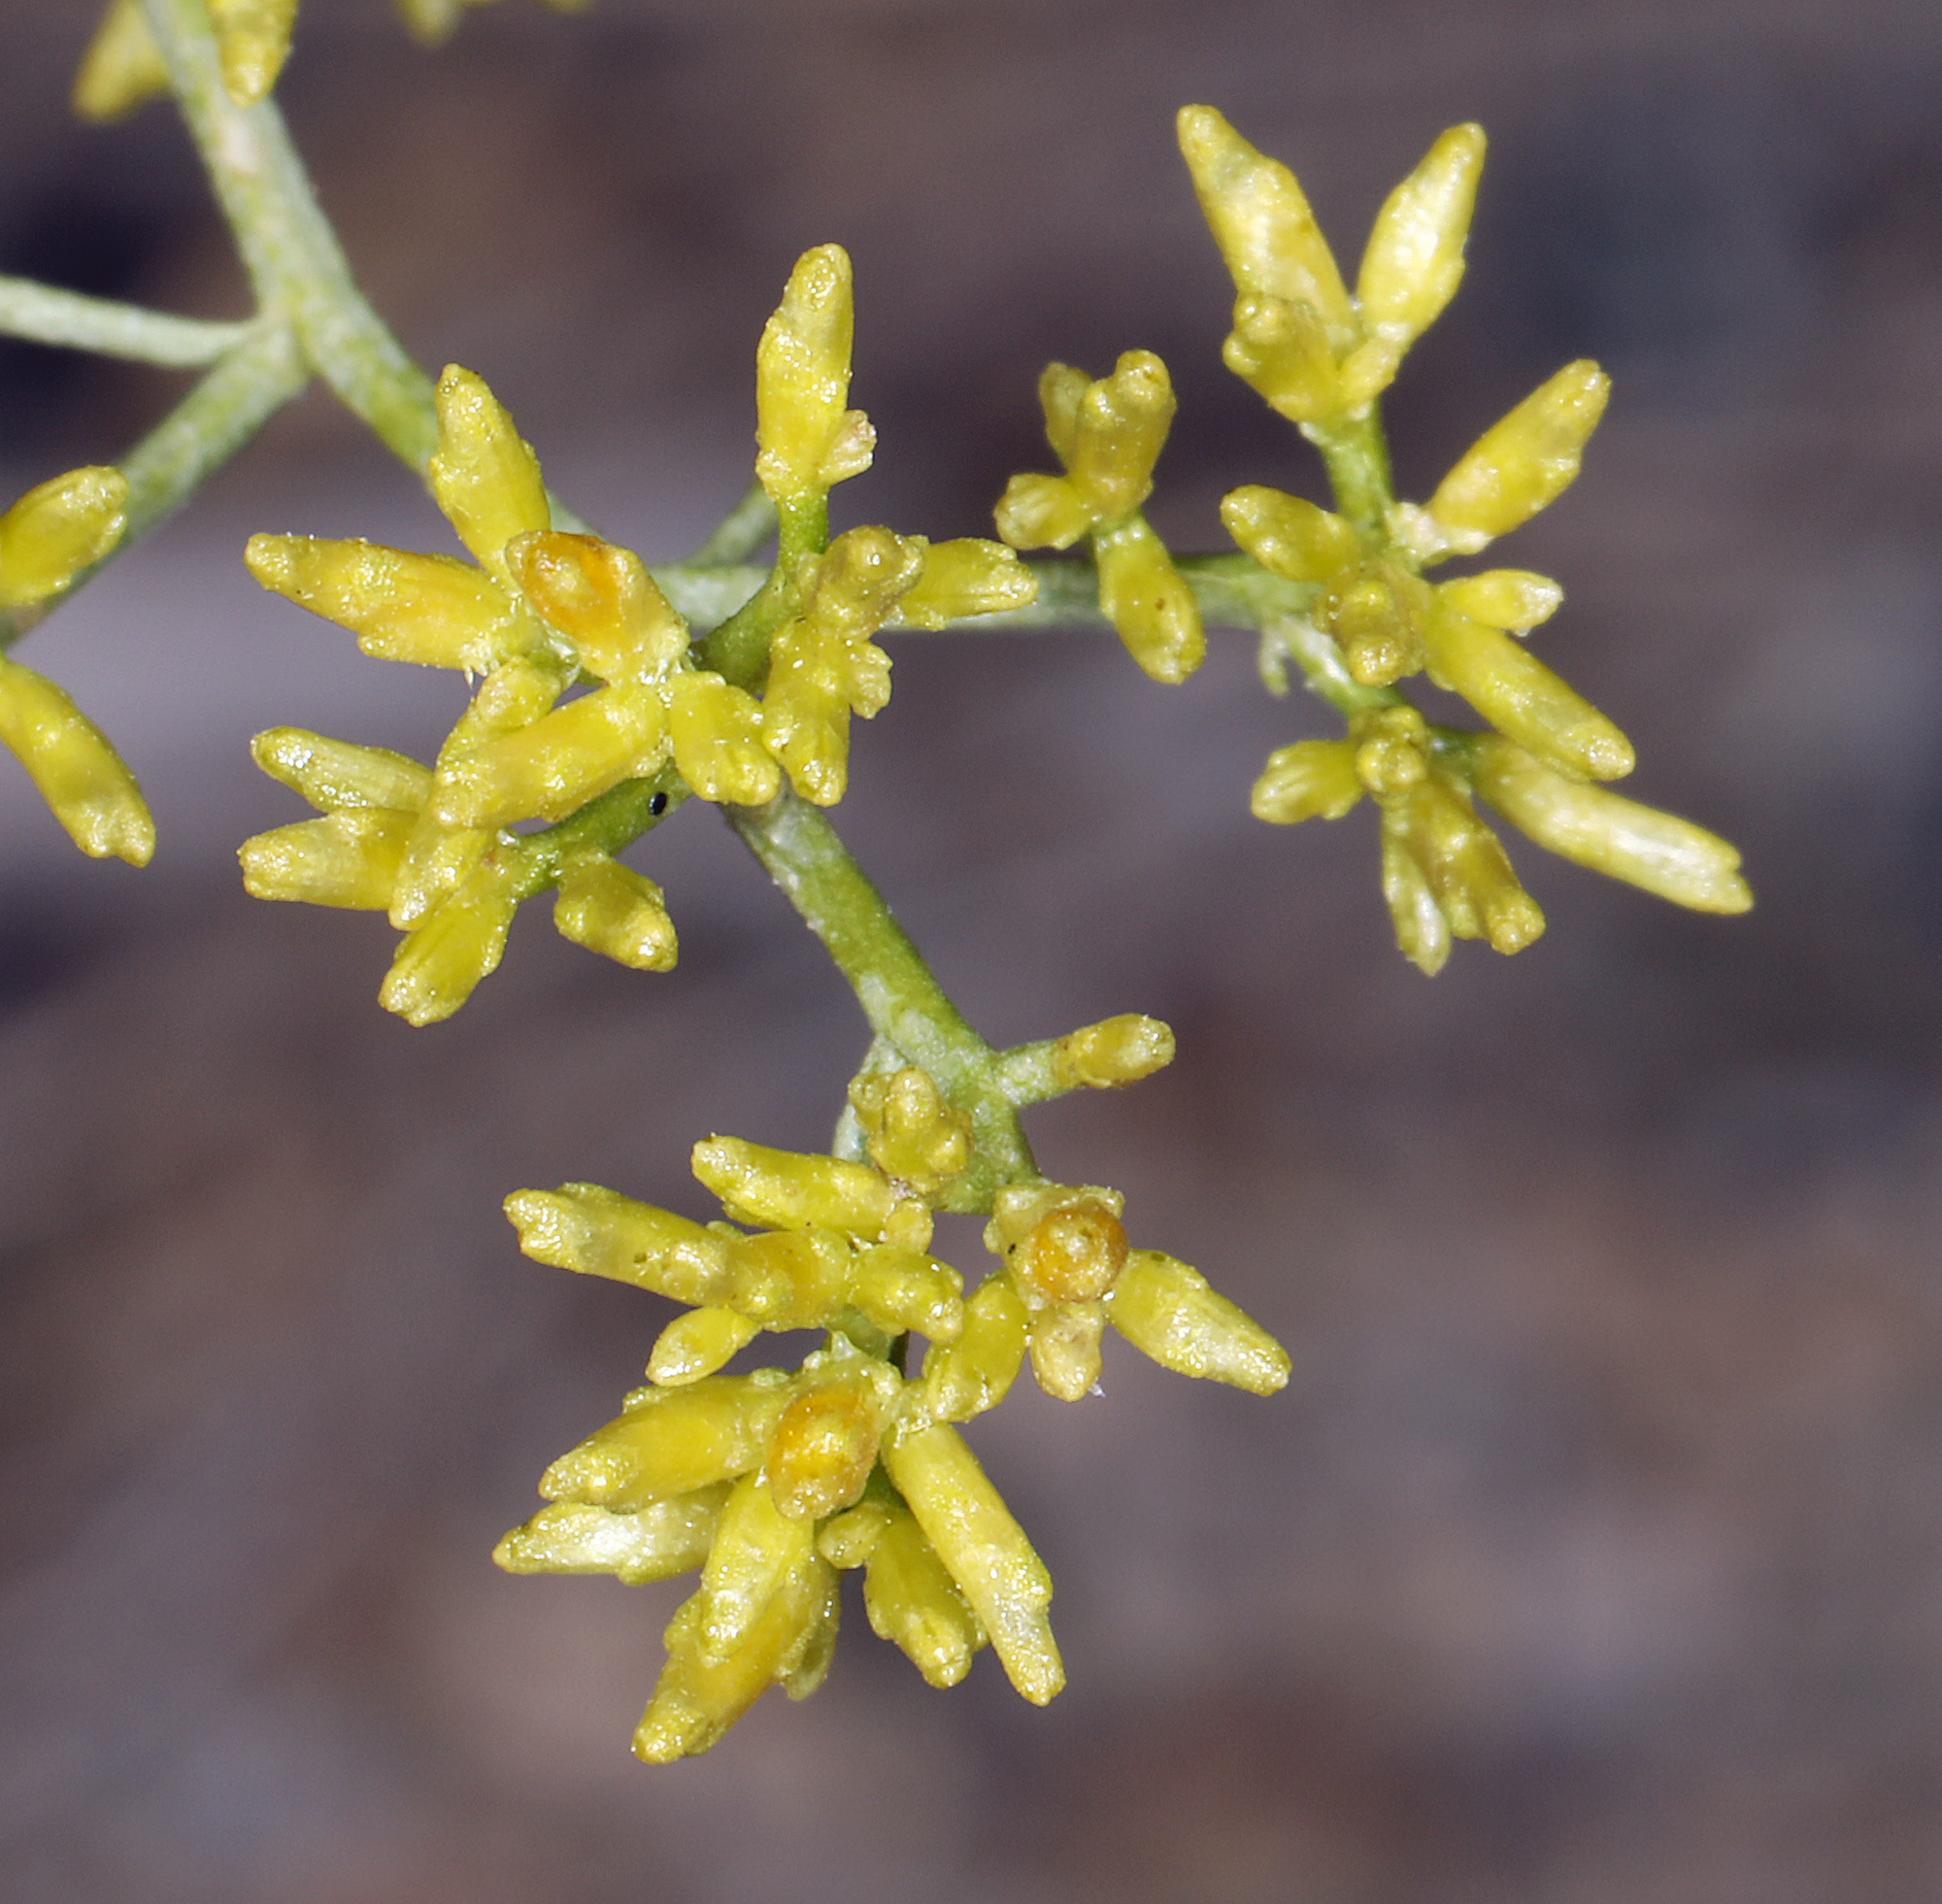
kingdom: Plantae
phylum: Tracheophyta
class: Magnoliopsida
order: Asterales
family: Asteraceae
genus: Gutierrezia
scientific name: Gutierrezia microcephala
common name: Thread snakeweed
